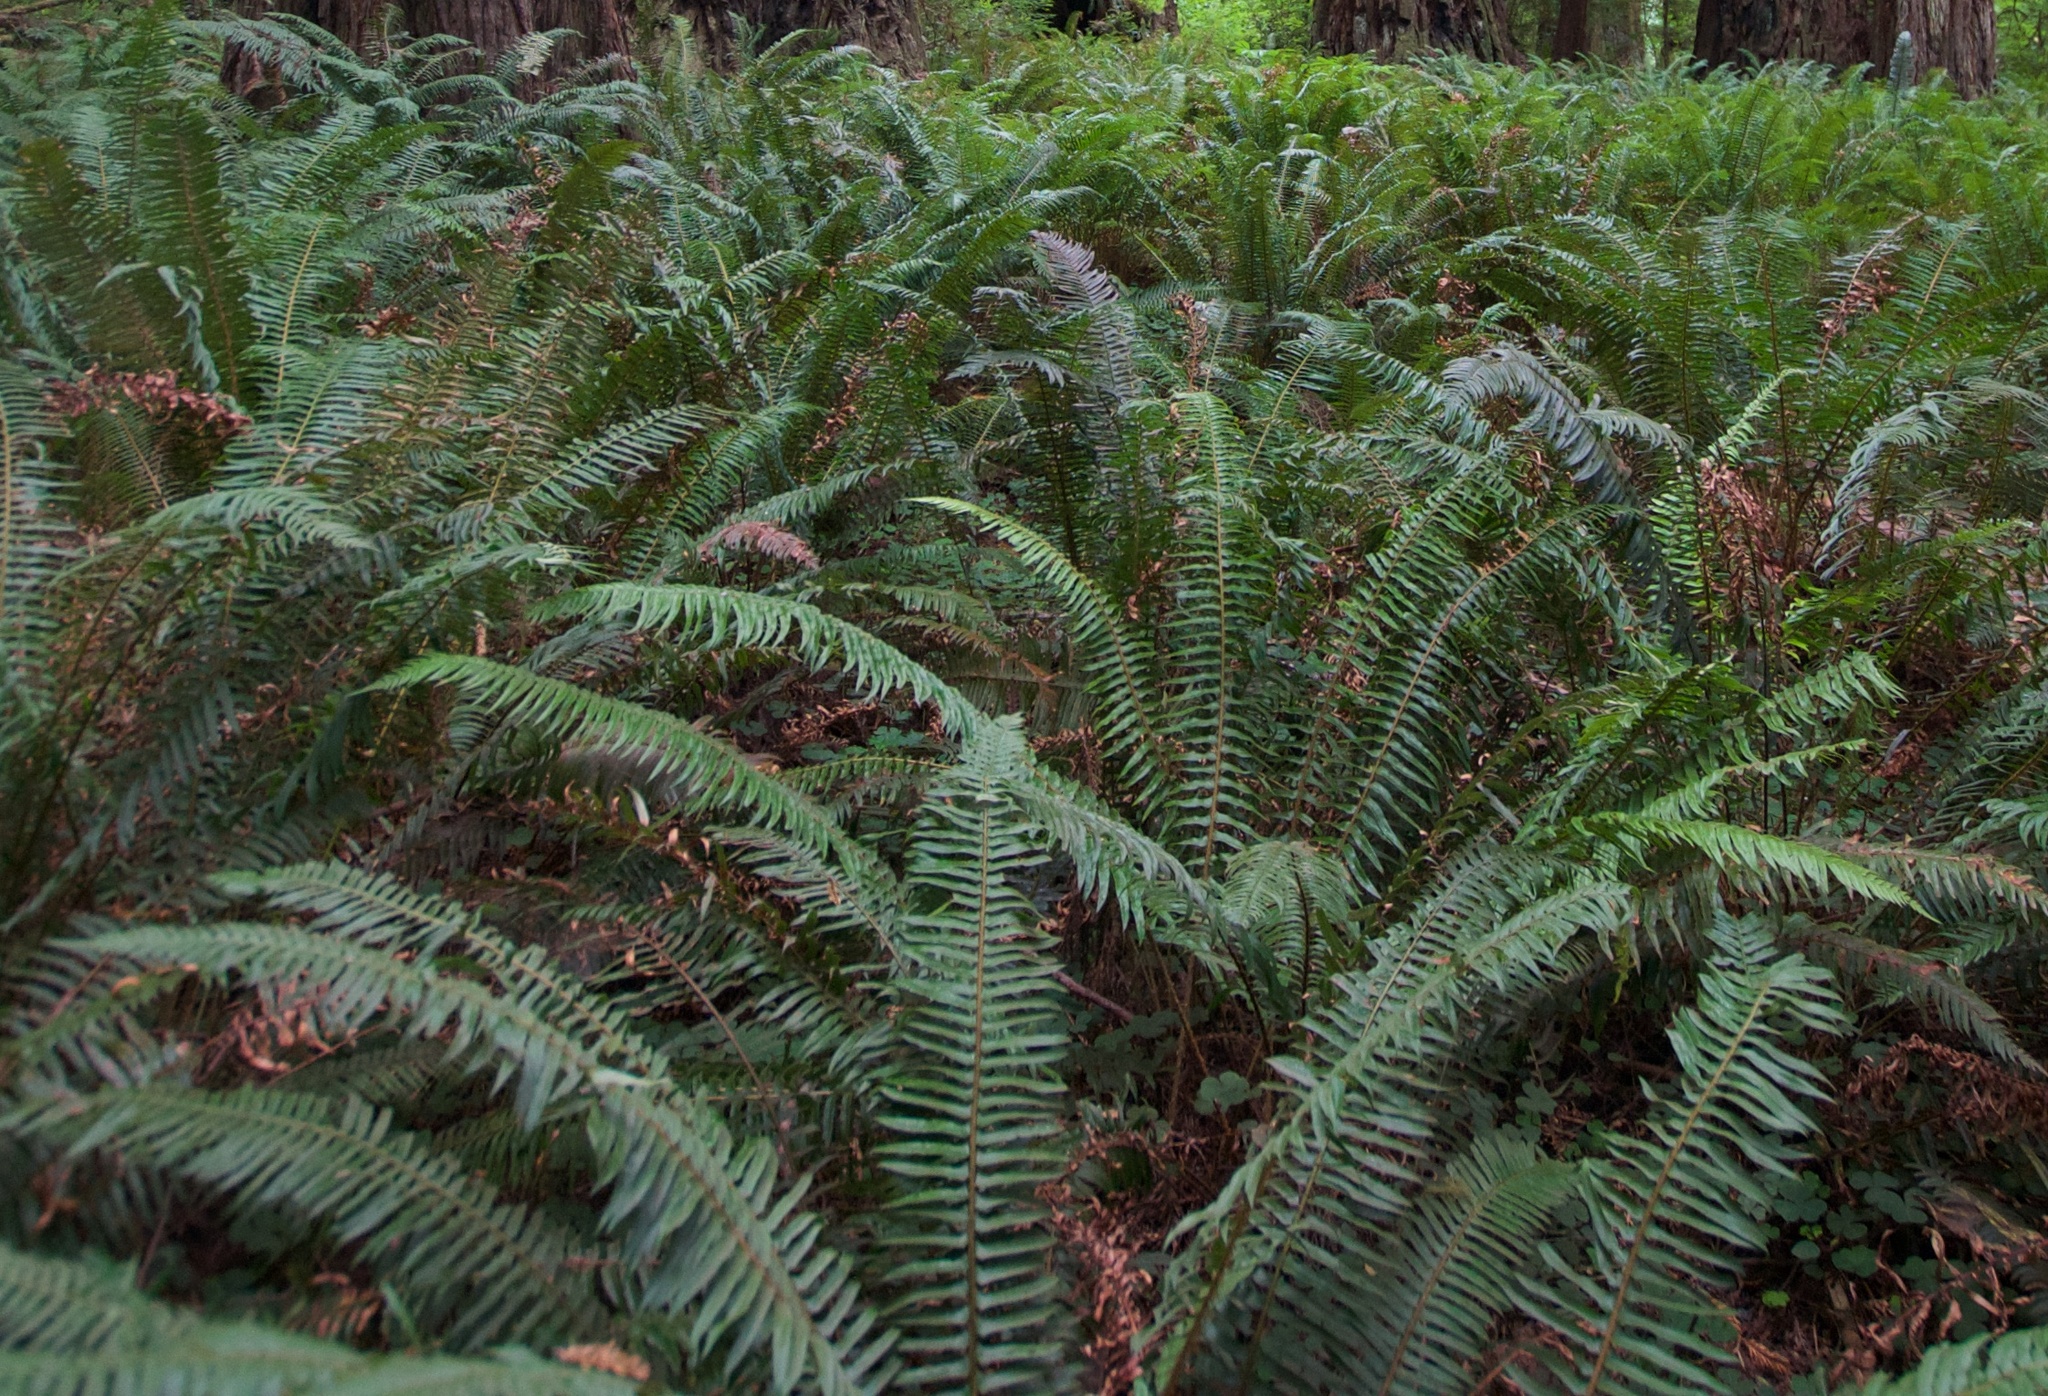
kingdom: Plantae
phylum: Tracheophyta
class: Polypodiopsida
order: Polypodiales
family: Dryopteridaceae
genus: Polystichum
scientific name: Polystichum munitum
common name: Western sword-fern
